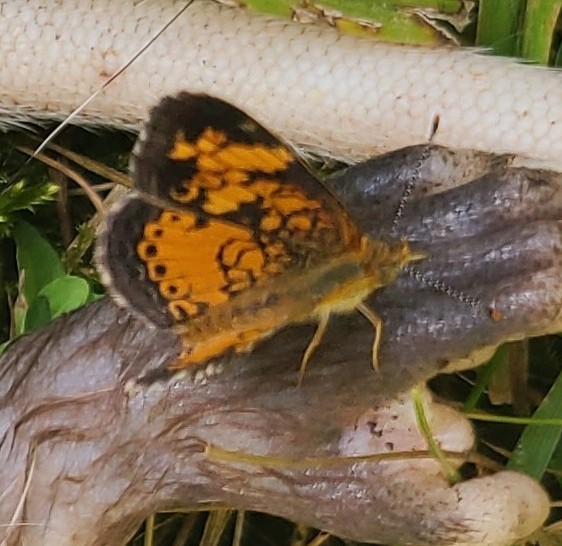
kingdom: Animalia
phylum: Arthropoda
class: Insecta
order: Lepidoptera
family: Nymphalidae
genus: Phyciodes
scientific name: Phyciodes tharos
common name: Pearl crescent
